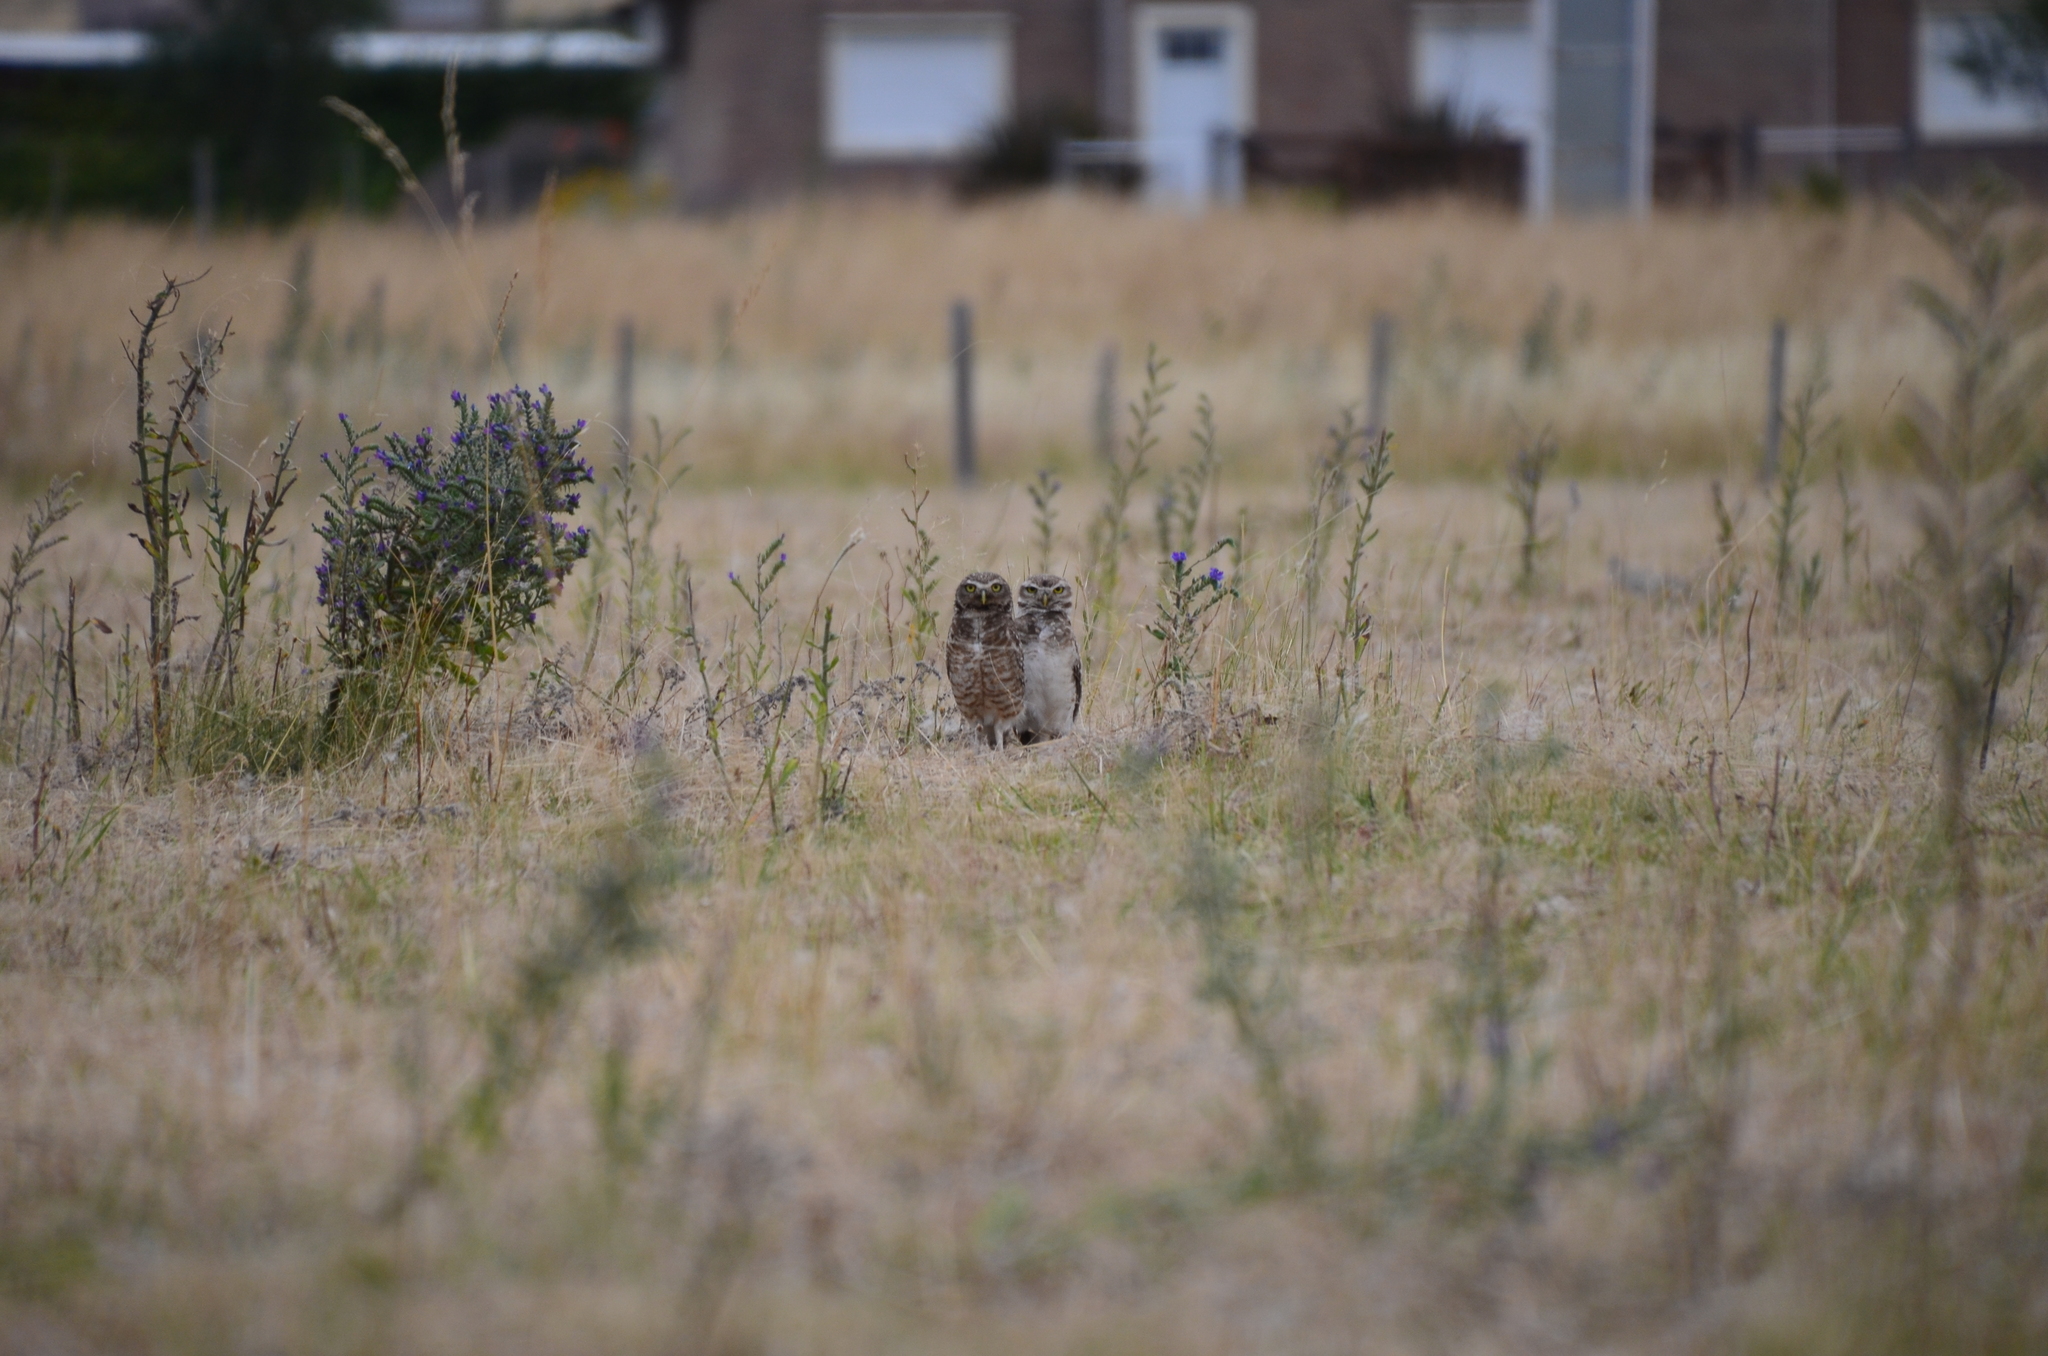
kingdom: Animalia
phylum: Chordata
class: Aves
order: Strigiformes
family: Strigidae
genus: Athene
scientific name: Athene cunicularia
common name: Burrowing owl
